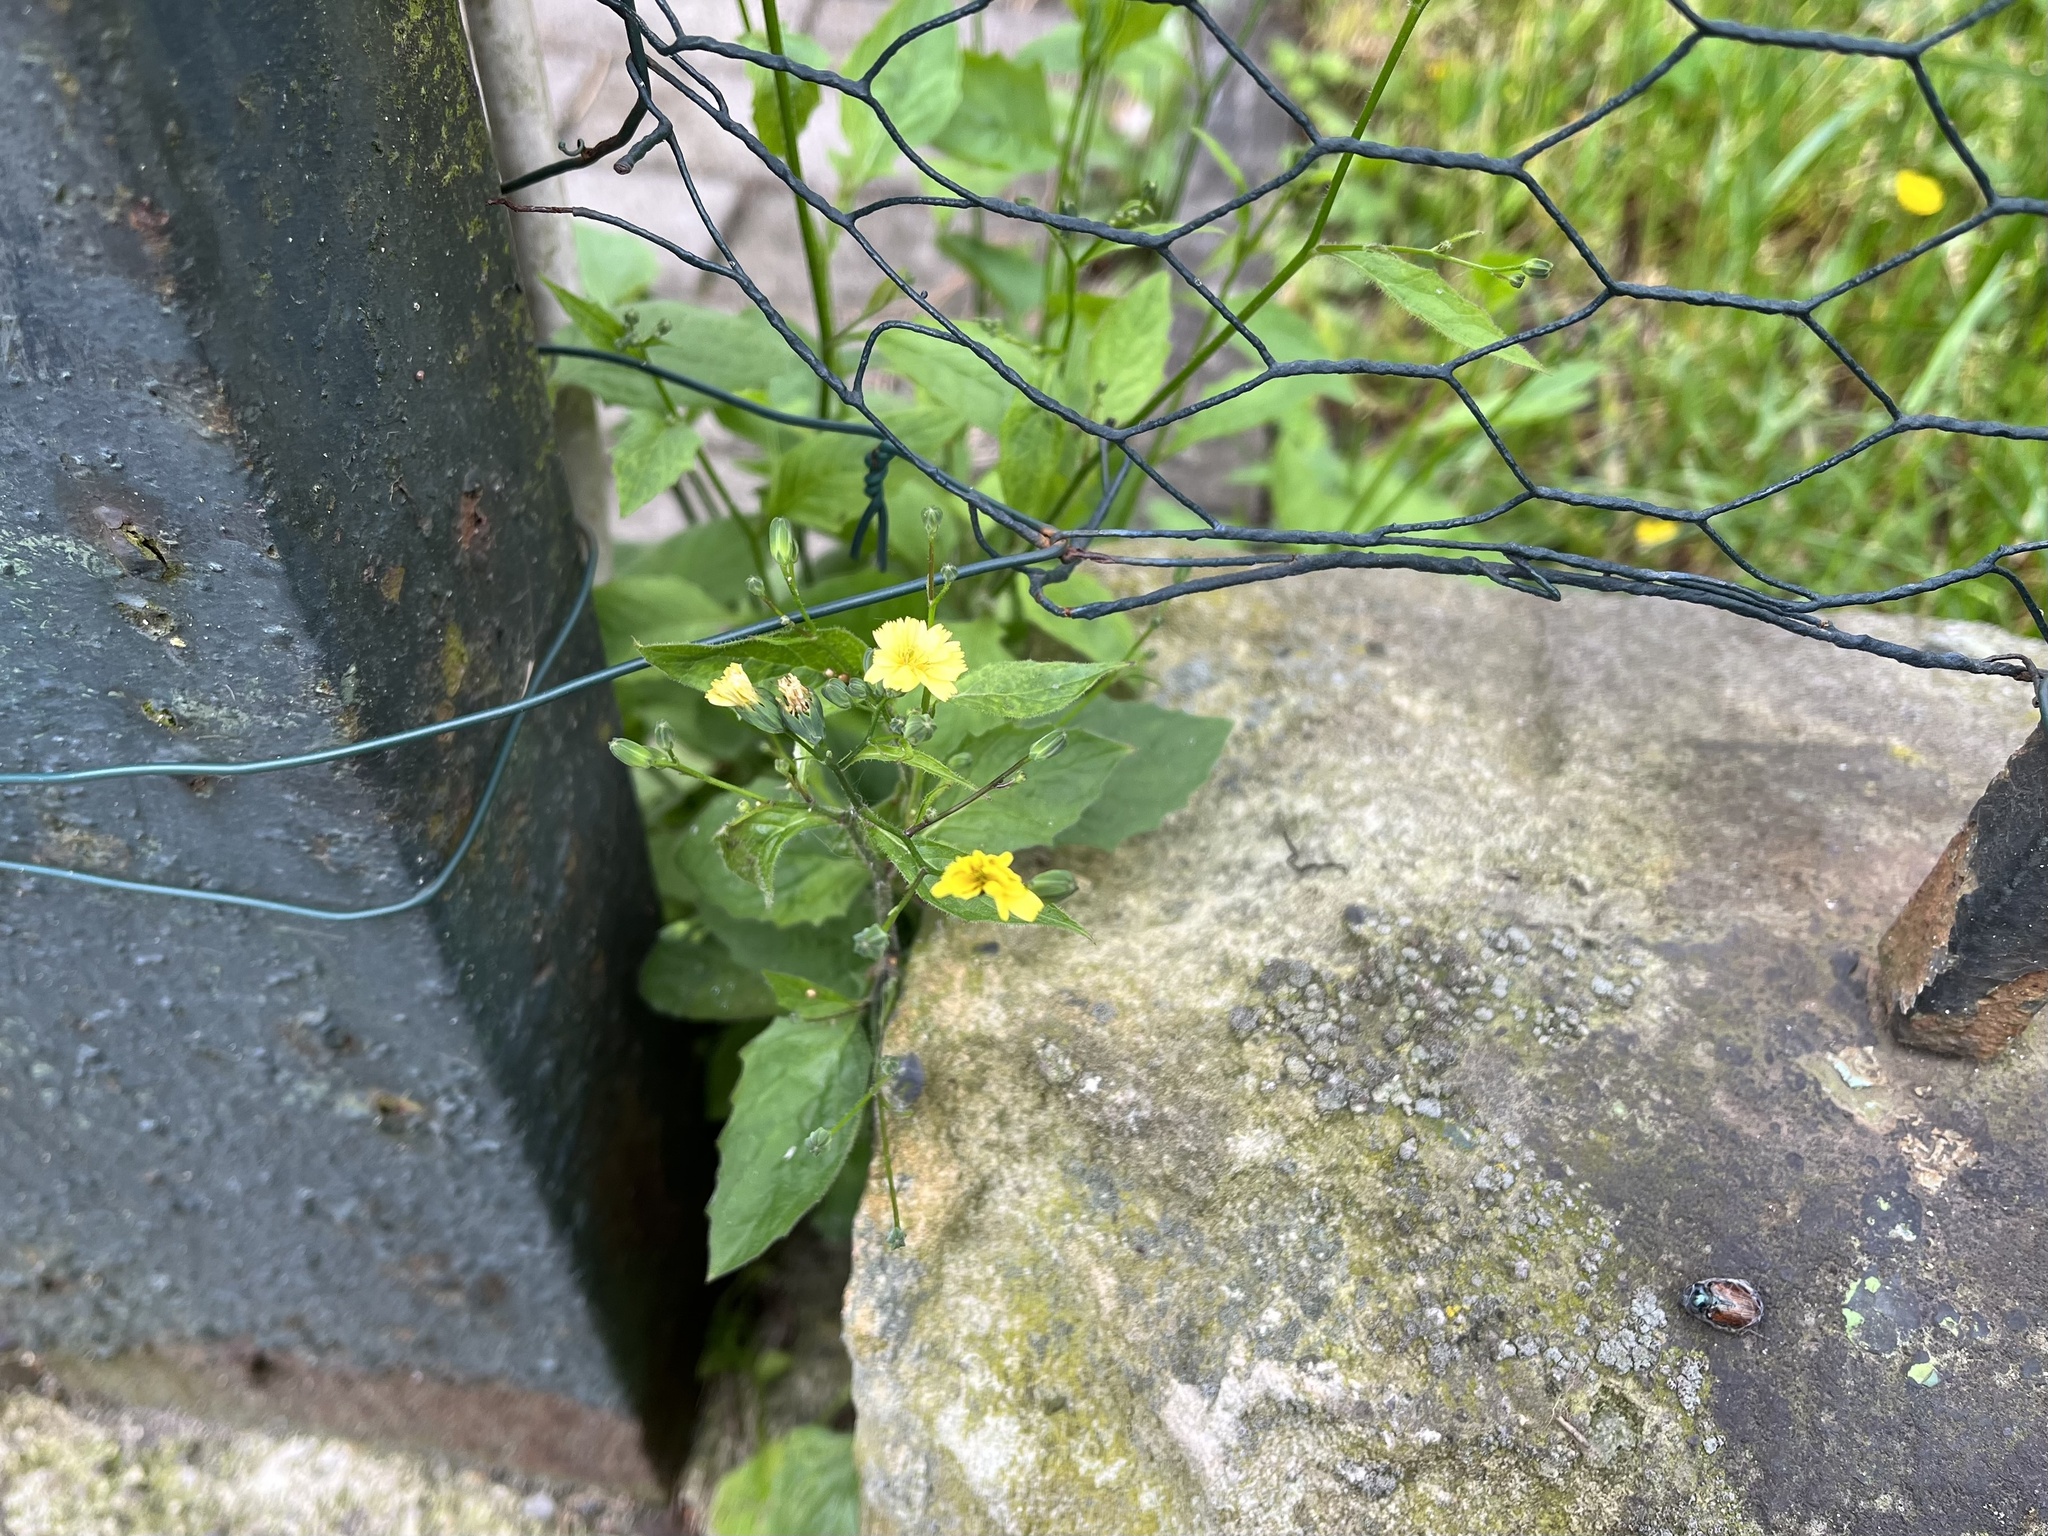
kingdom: Plantae
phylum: Tracheophyta
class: Magnoliopsida
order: Asterales
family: Asteraceae
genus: Lapsana
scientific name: Lapsana communis
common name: Nipplewort
